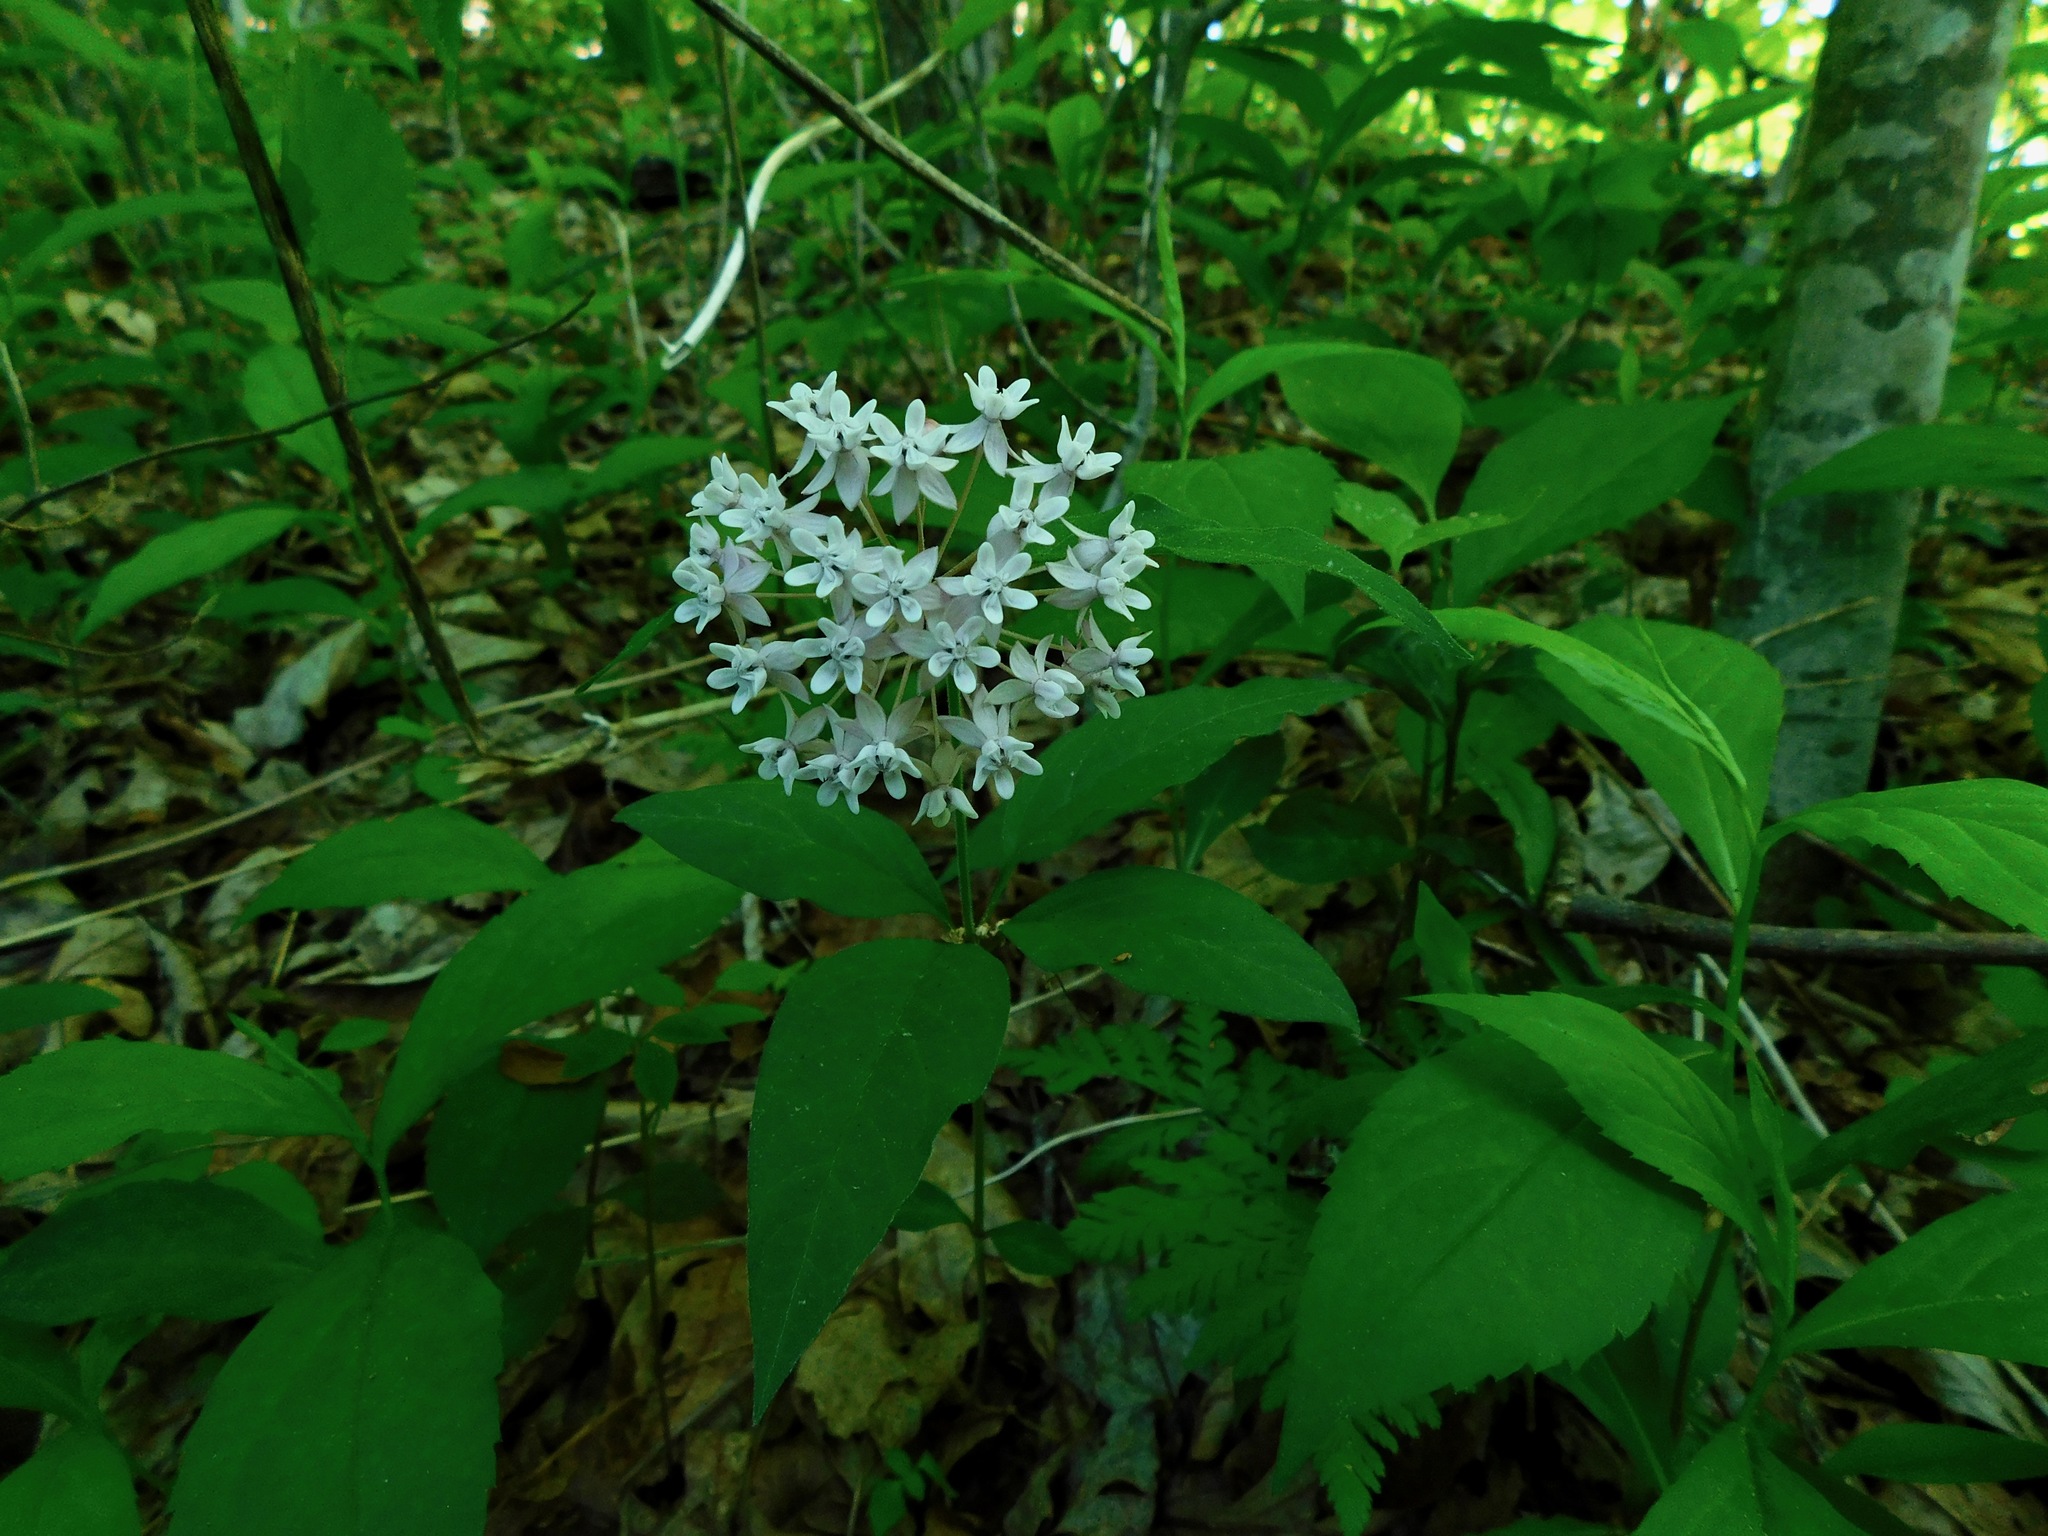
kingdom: Plantae
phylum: Tracheophyta
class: Magnoliopsida
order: Gentianales
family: Apocynaceae
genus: Asclepias
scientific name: Asclepias quadrifolia
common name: Whorled milkweed
